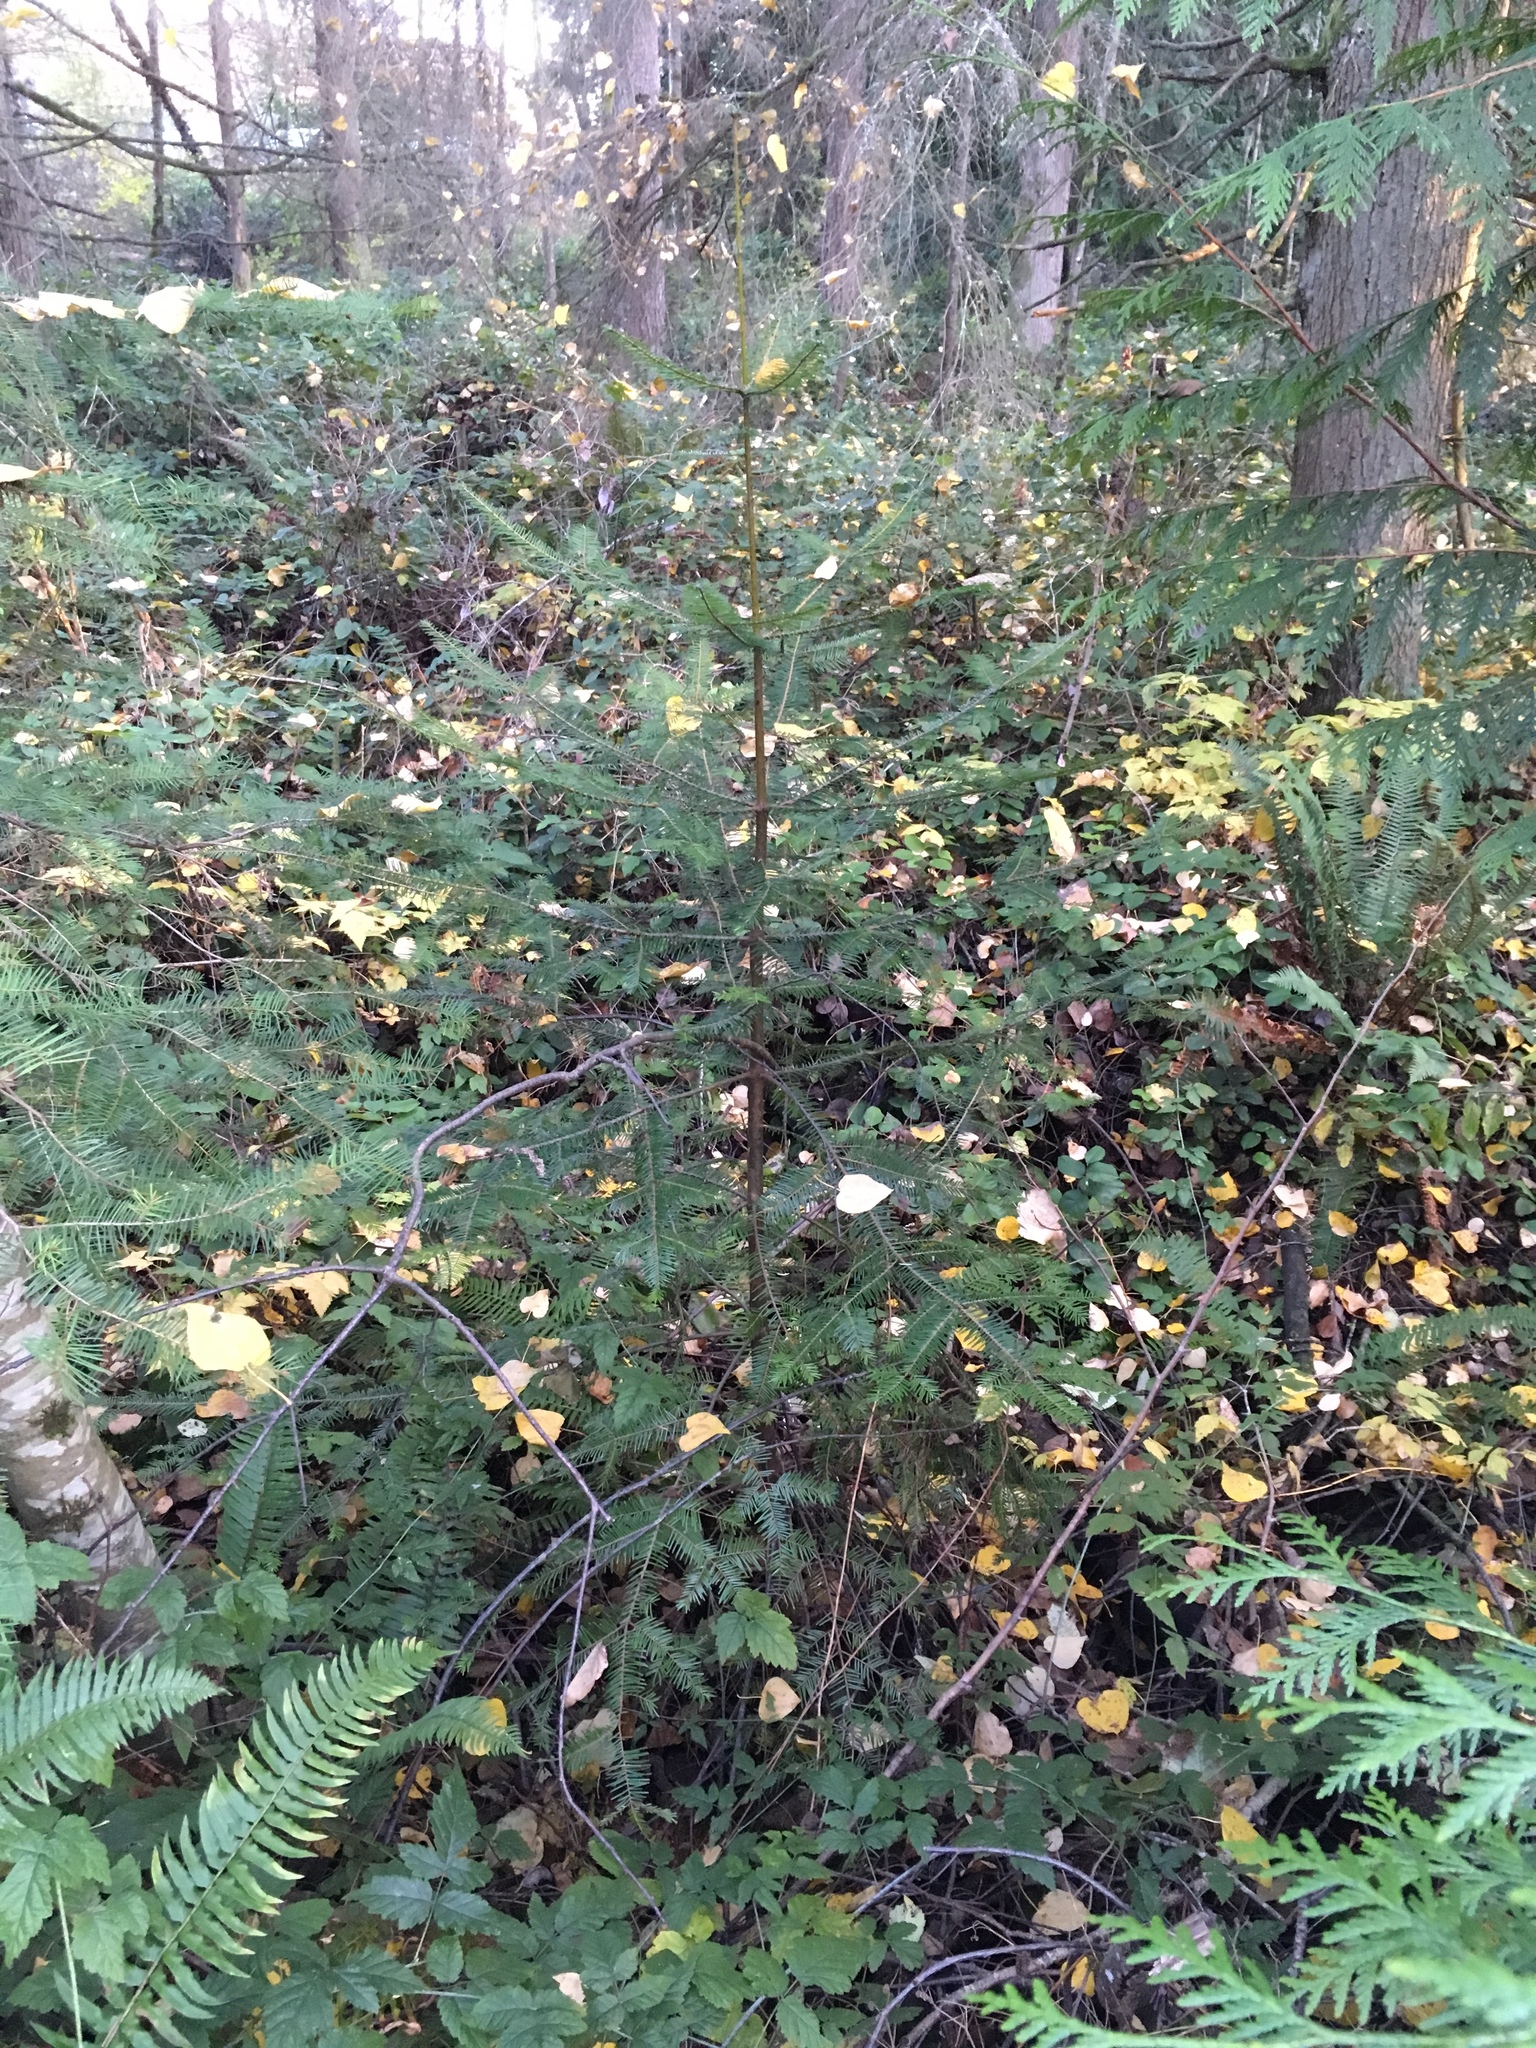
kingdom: Plantae
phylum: Tracheophyta
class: Pinopsida
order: Pinales
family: Pinaceae
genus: Abies
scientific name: Abies grandis
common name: Giant fir
